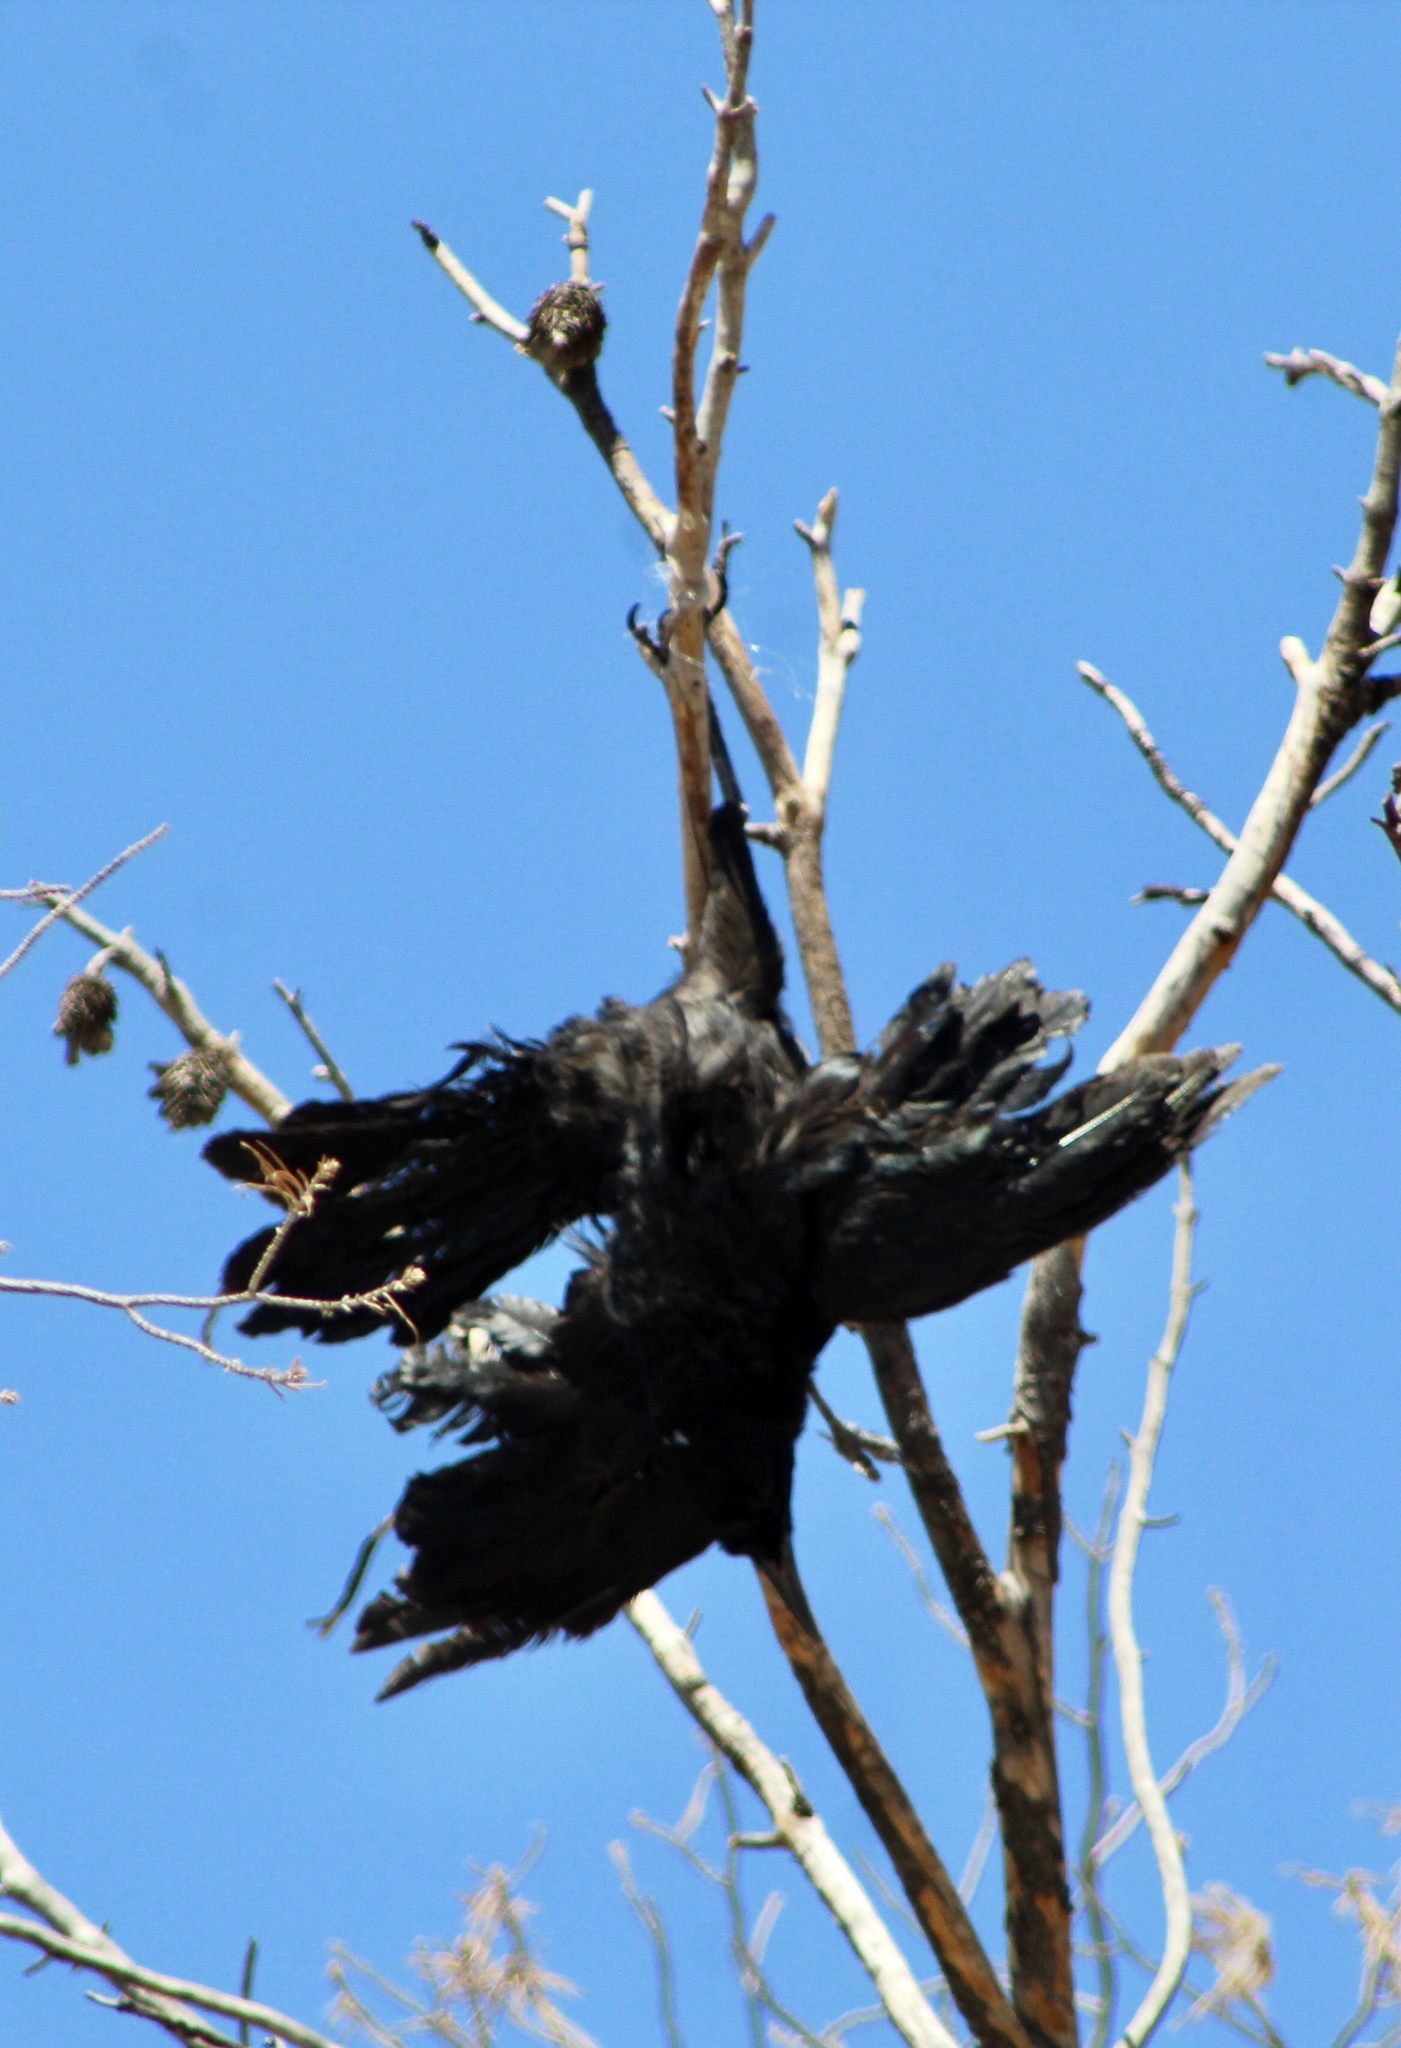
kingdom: Animalia
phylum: Chordata
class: Aves
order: Passeriformes
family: Icteridae
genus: Quiscalus
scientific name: Quiscalus mexicanus
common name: Great-tailed grackle
